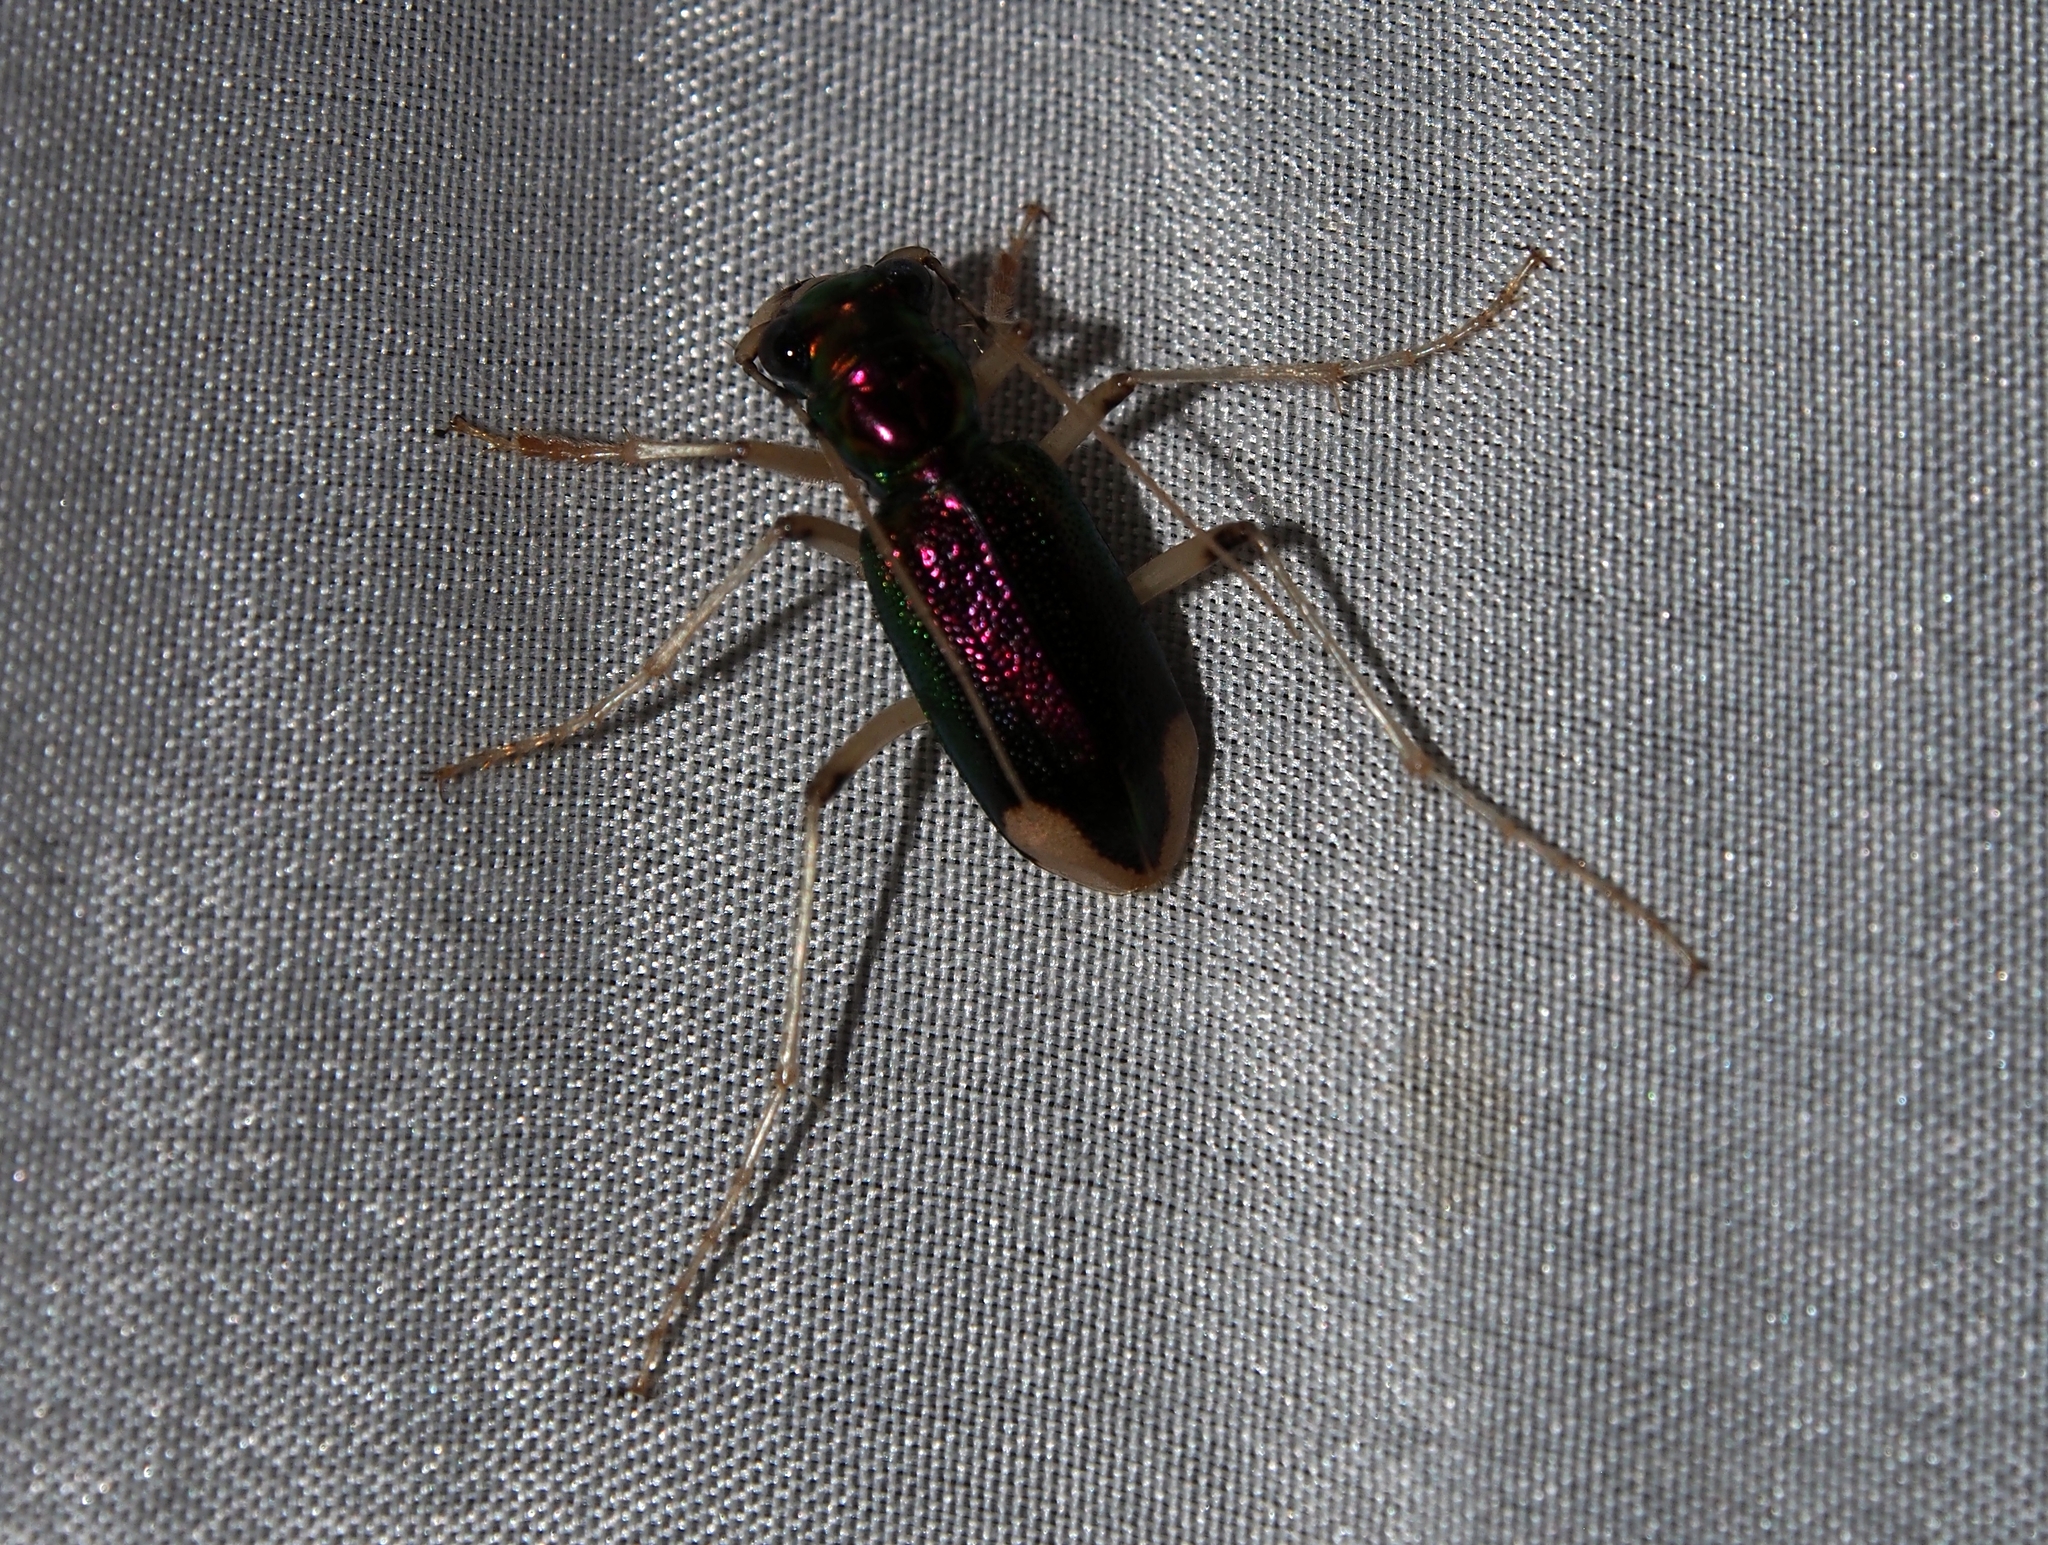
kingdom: Animalia
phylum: Arthropoda
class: Insecta
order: Coleoptera
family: Carabidae
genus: Tetracha
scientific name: Tetracha sobrina
